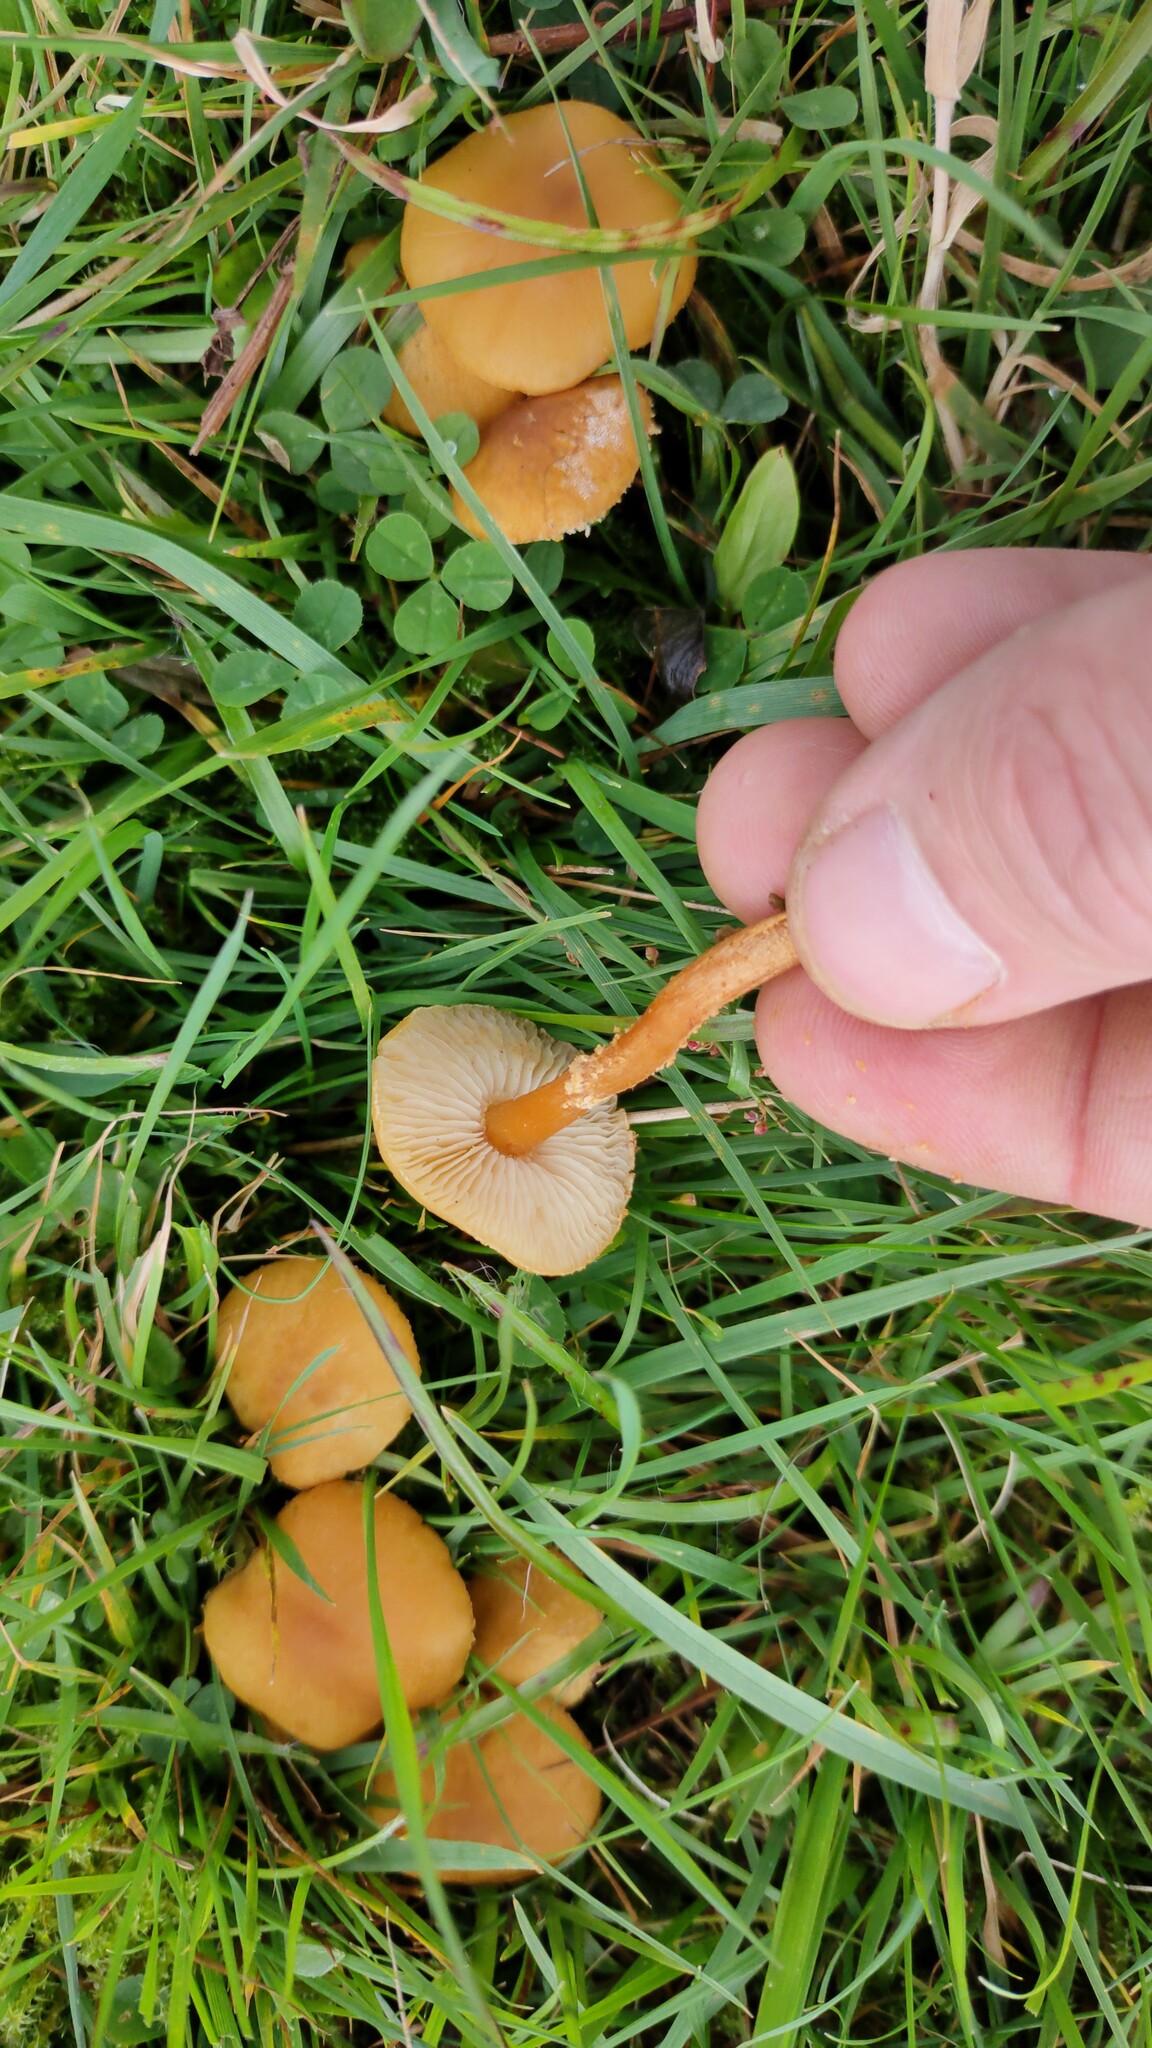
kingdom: Fungi
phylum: Basidiomycota
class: Agaricomycetes
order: Agaricales
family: Tricholomataceae
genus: Cystoderma
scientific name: Cystoderma amianthinum
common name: Earthy powdercap
